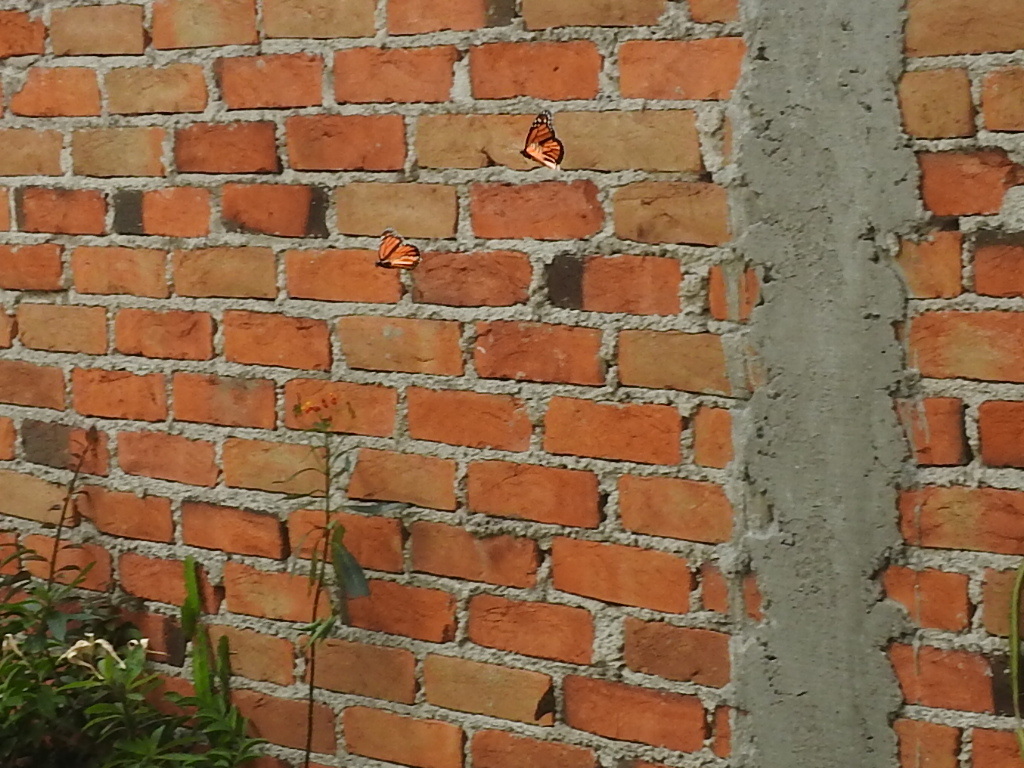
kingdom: Animalia
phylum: Arthropoda
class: Insecta
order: Lepidoptera
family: Nymphalidae
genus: Danaus
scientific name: Danaus plexippus
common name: Monarch
